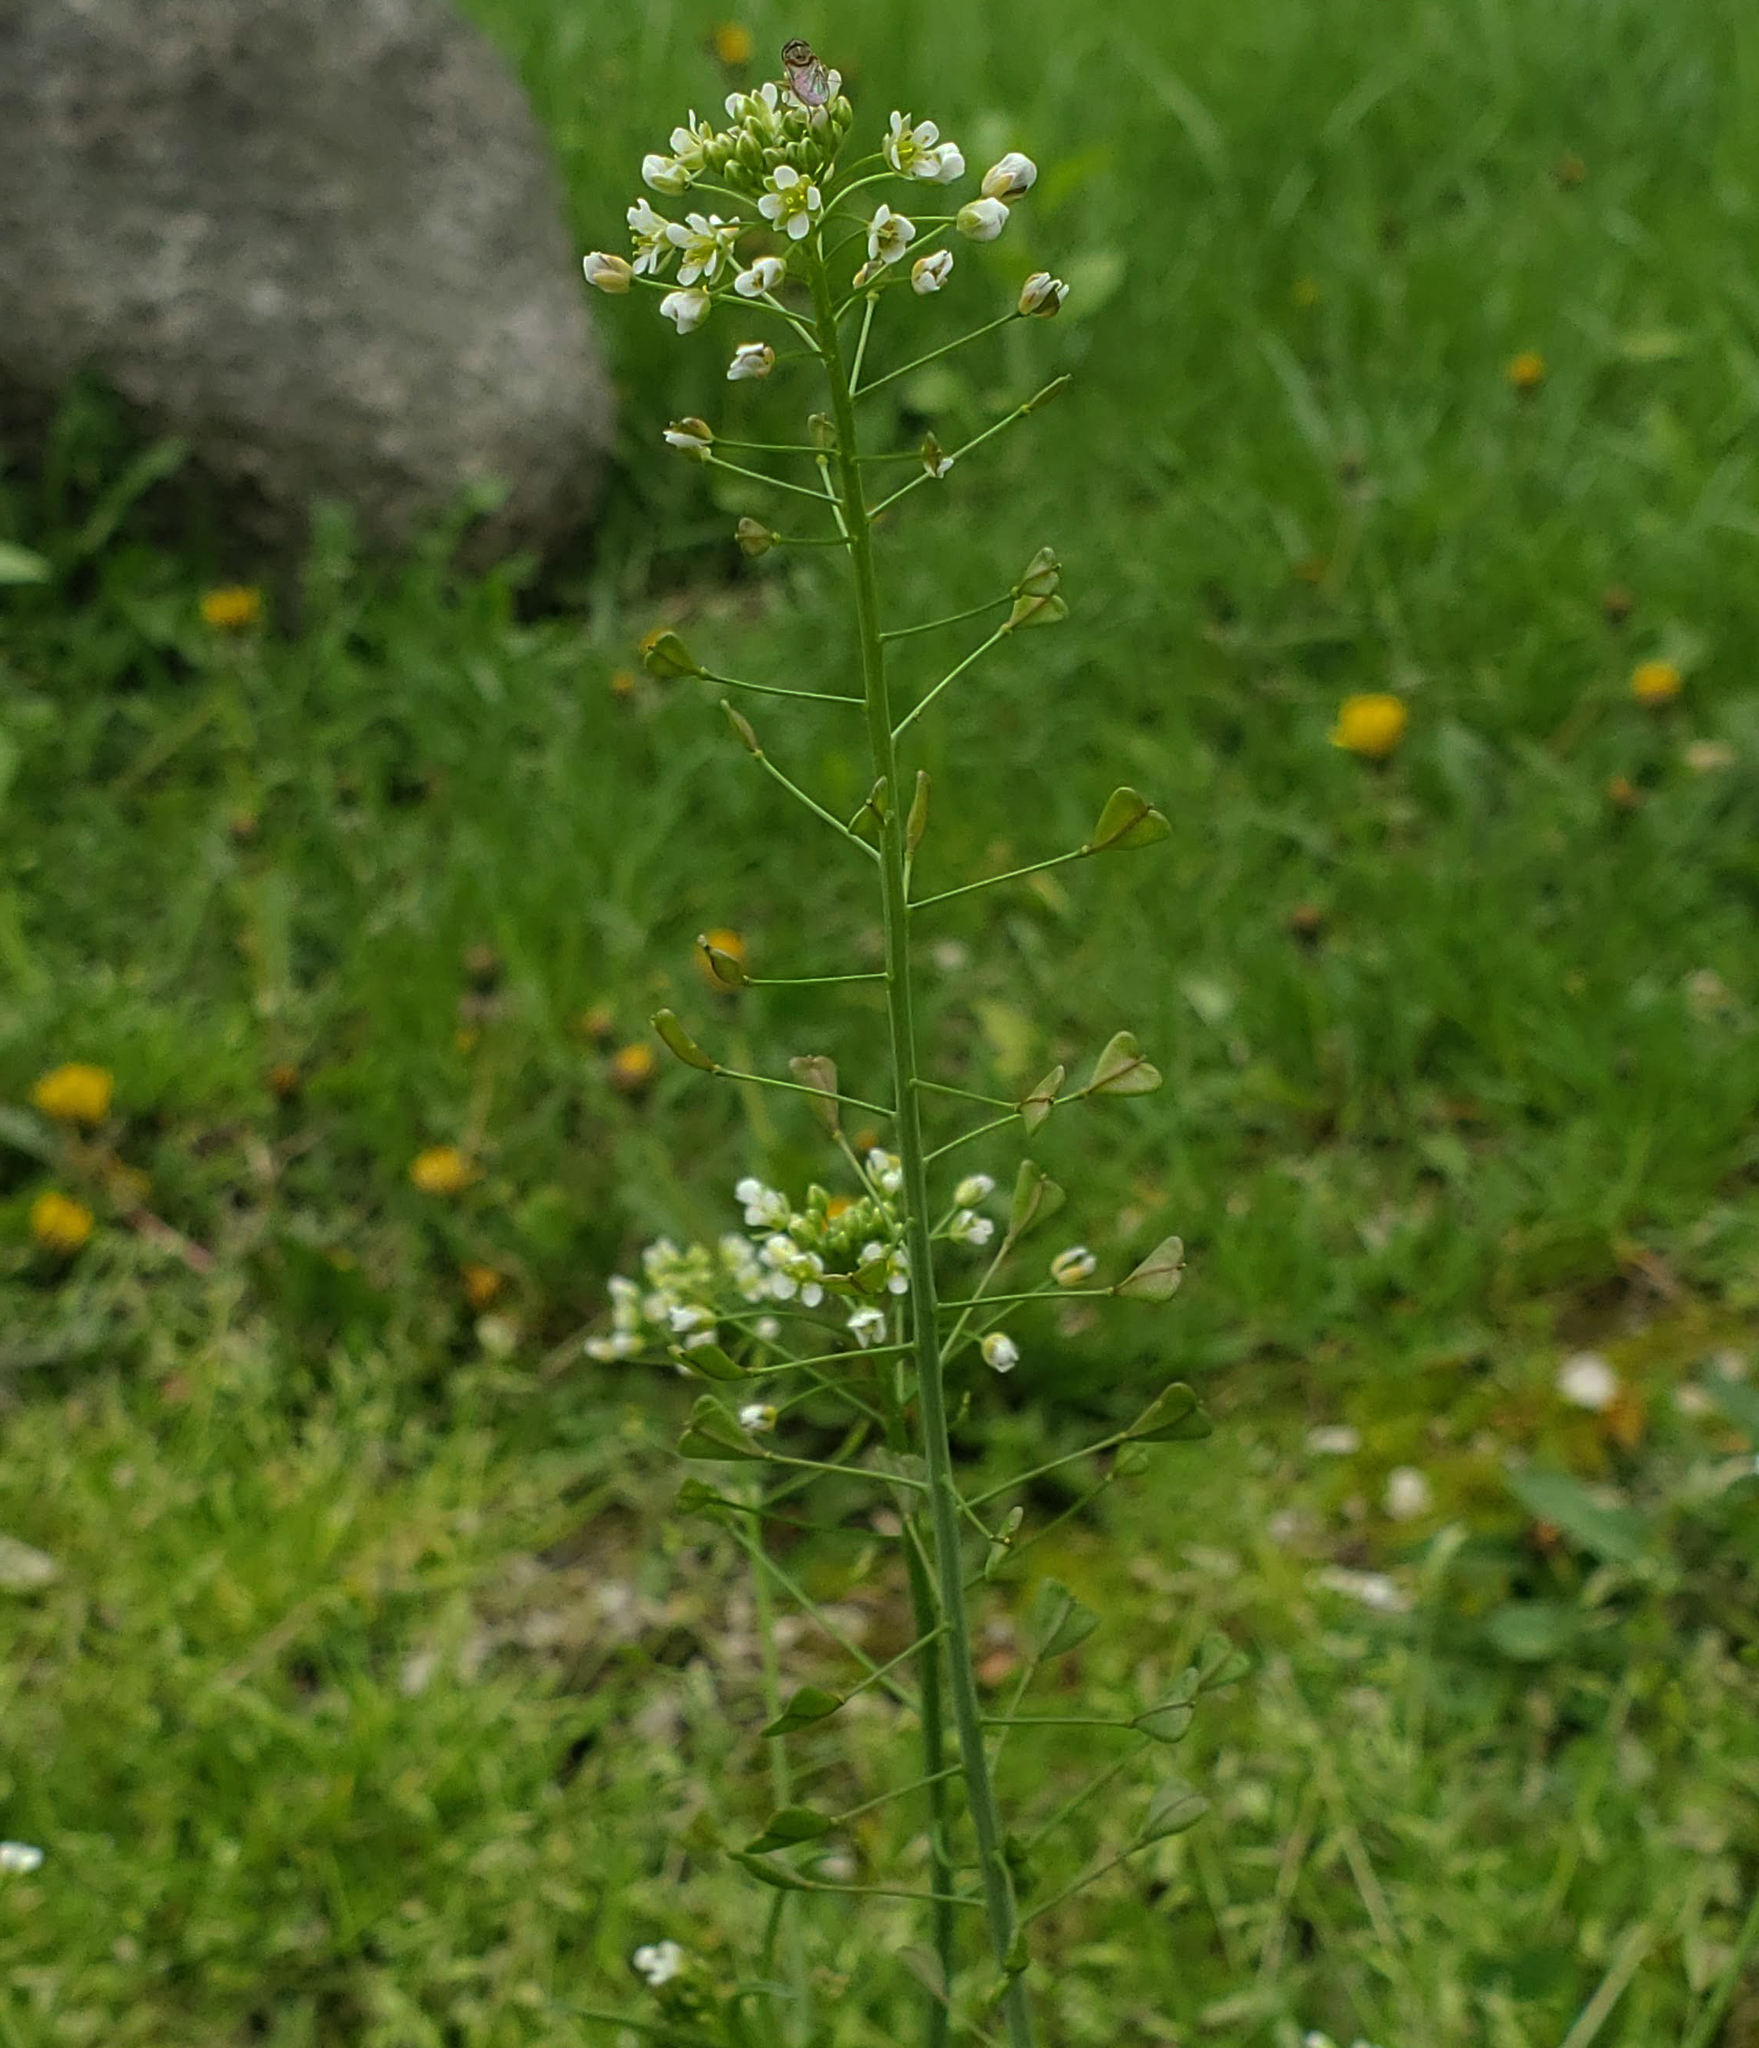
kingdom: Plantae
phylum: Tracheophyta
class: Magnoliopsida
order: Brassicales
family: Brassicaceae
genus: Capsella
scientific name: Capsella bursa-pastoris
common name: Shepherd's purse
